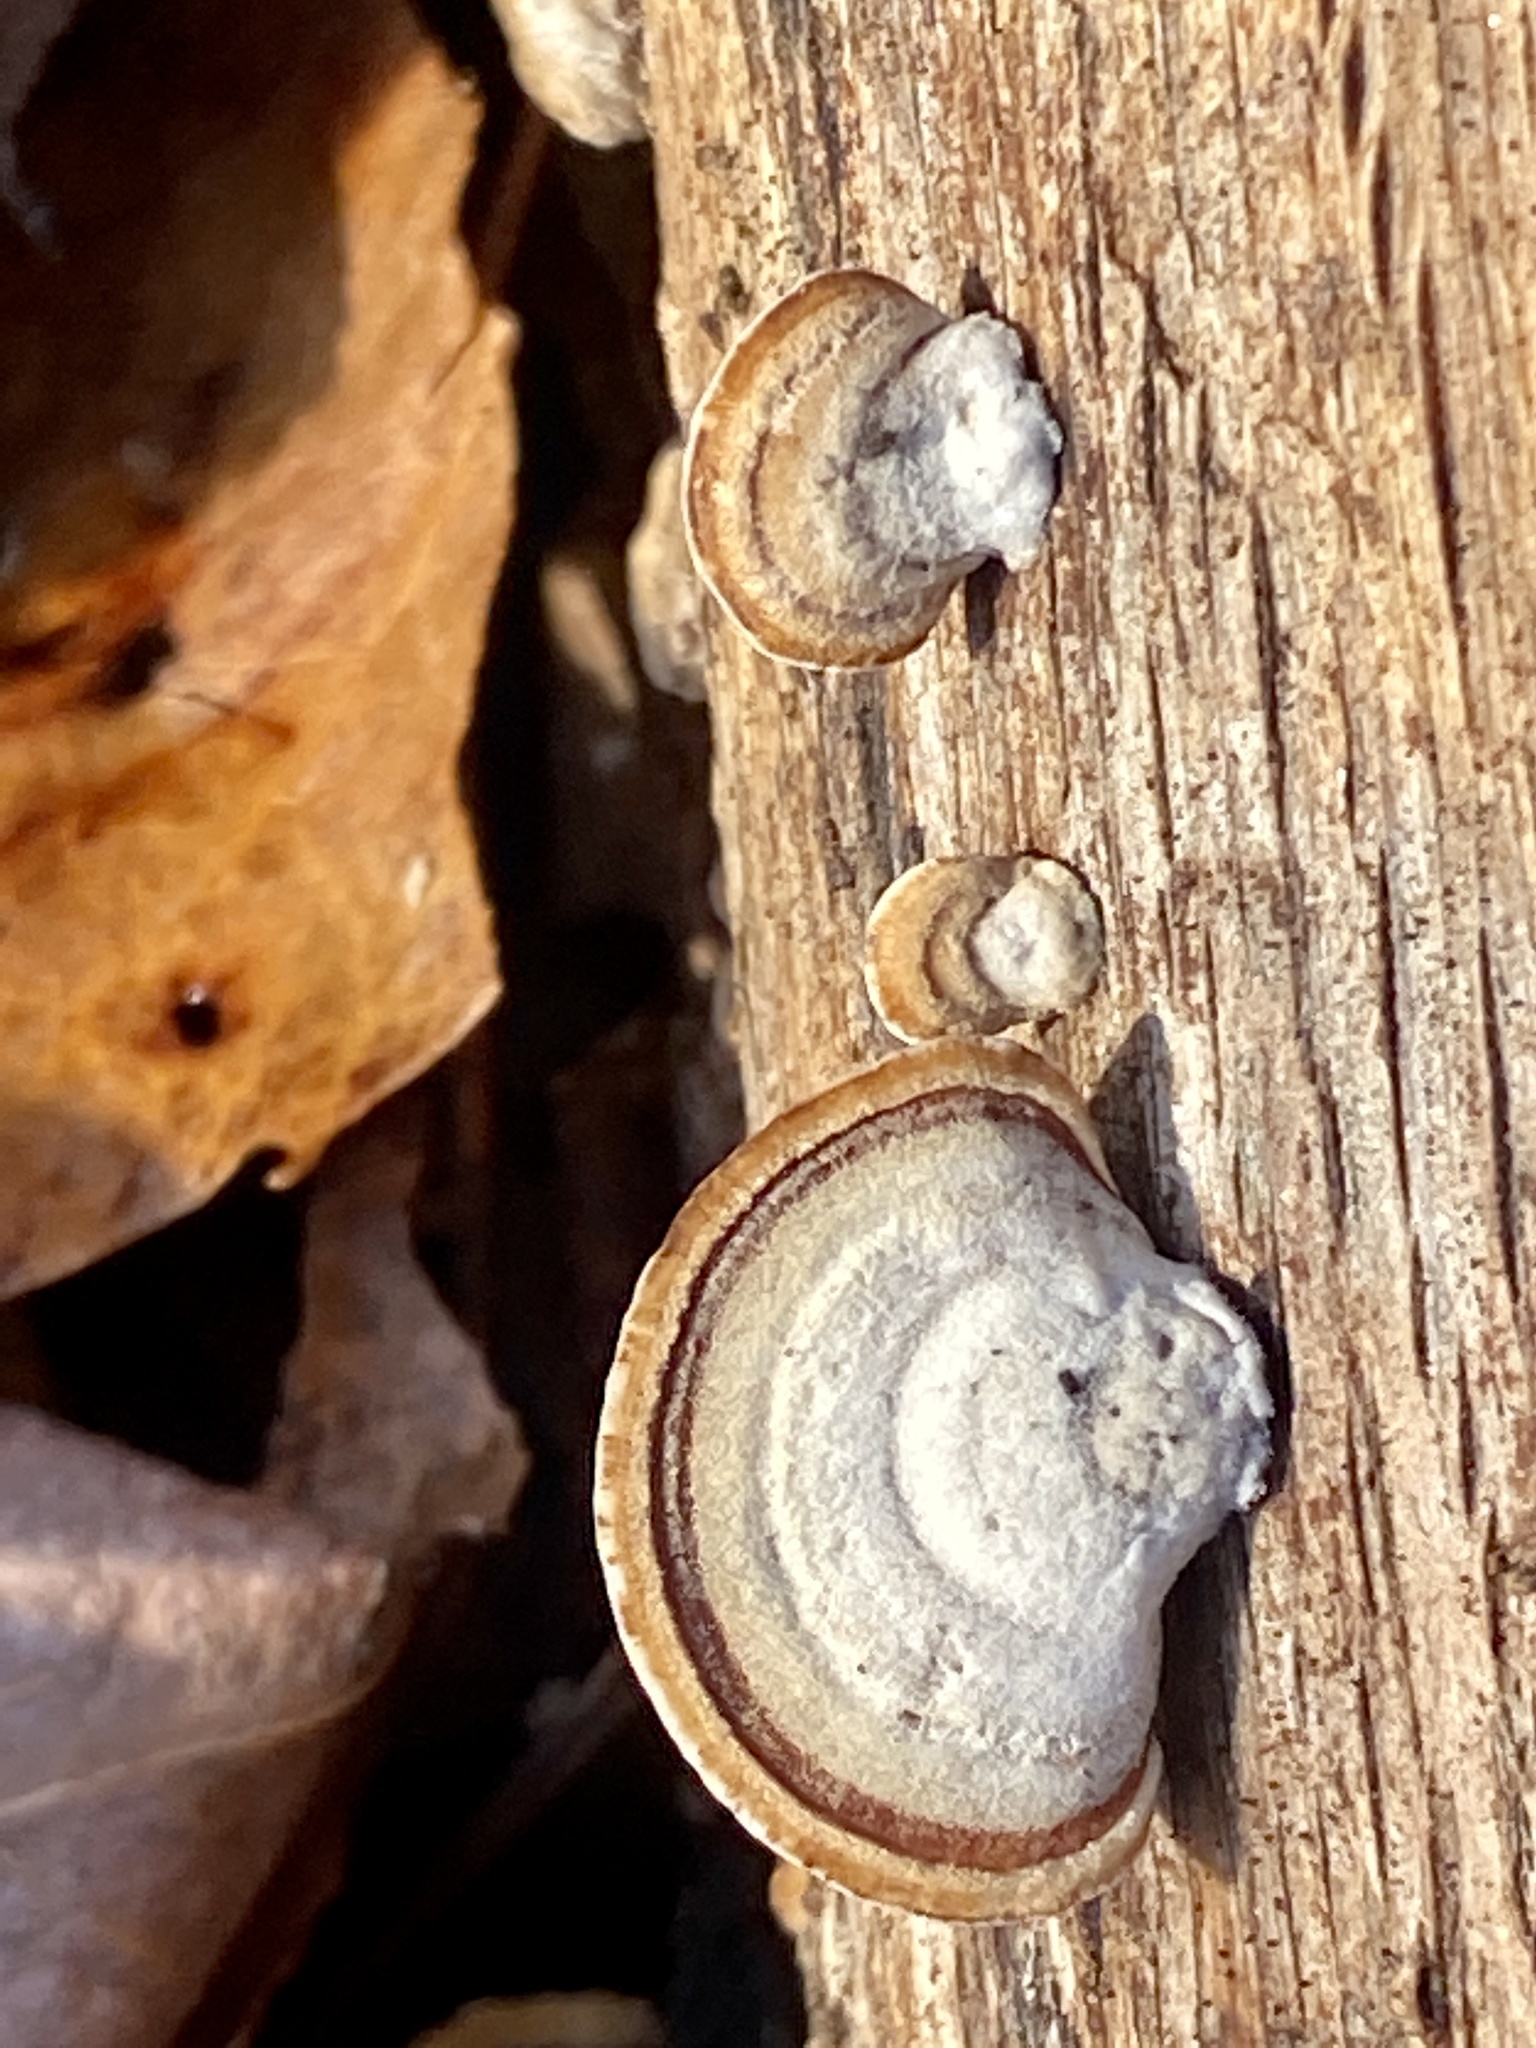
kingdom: Fungi
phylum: Basidiomycota
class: Agaricomycetes
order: Russulales
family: Stereaceae
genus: Stereum
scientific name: Stereum lobatum
